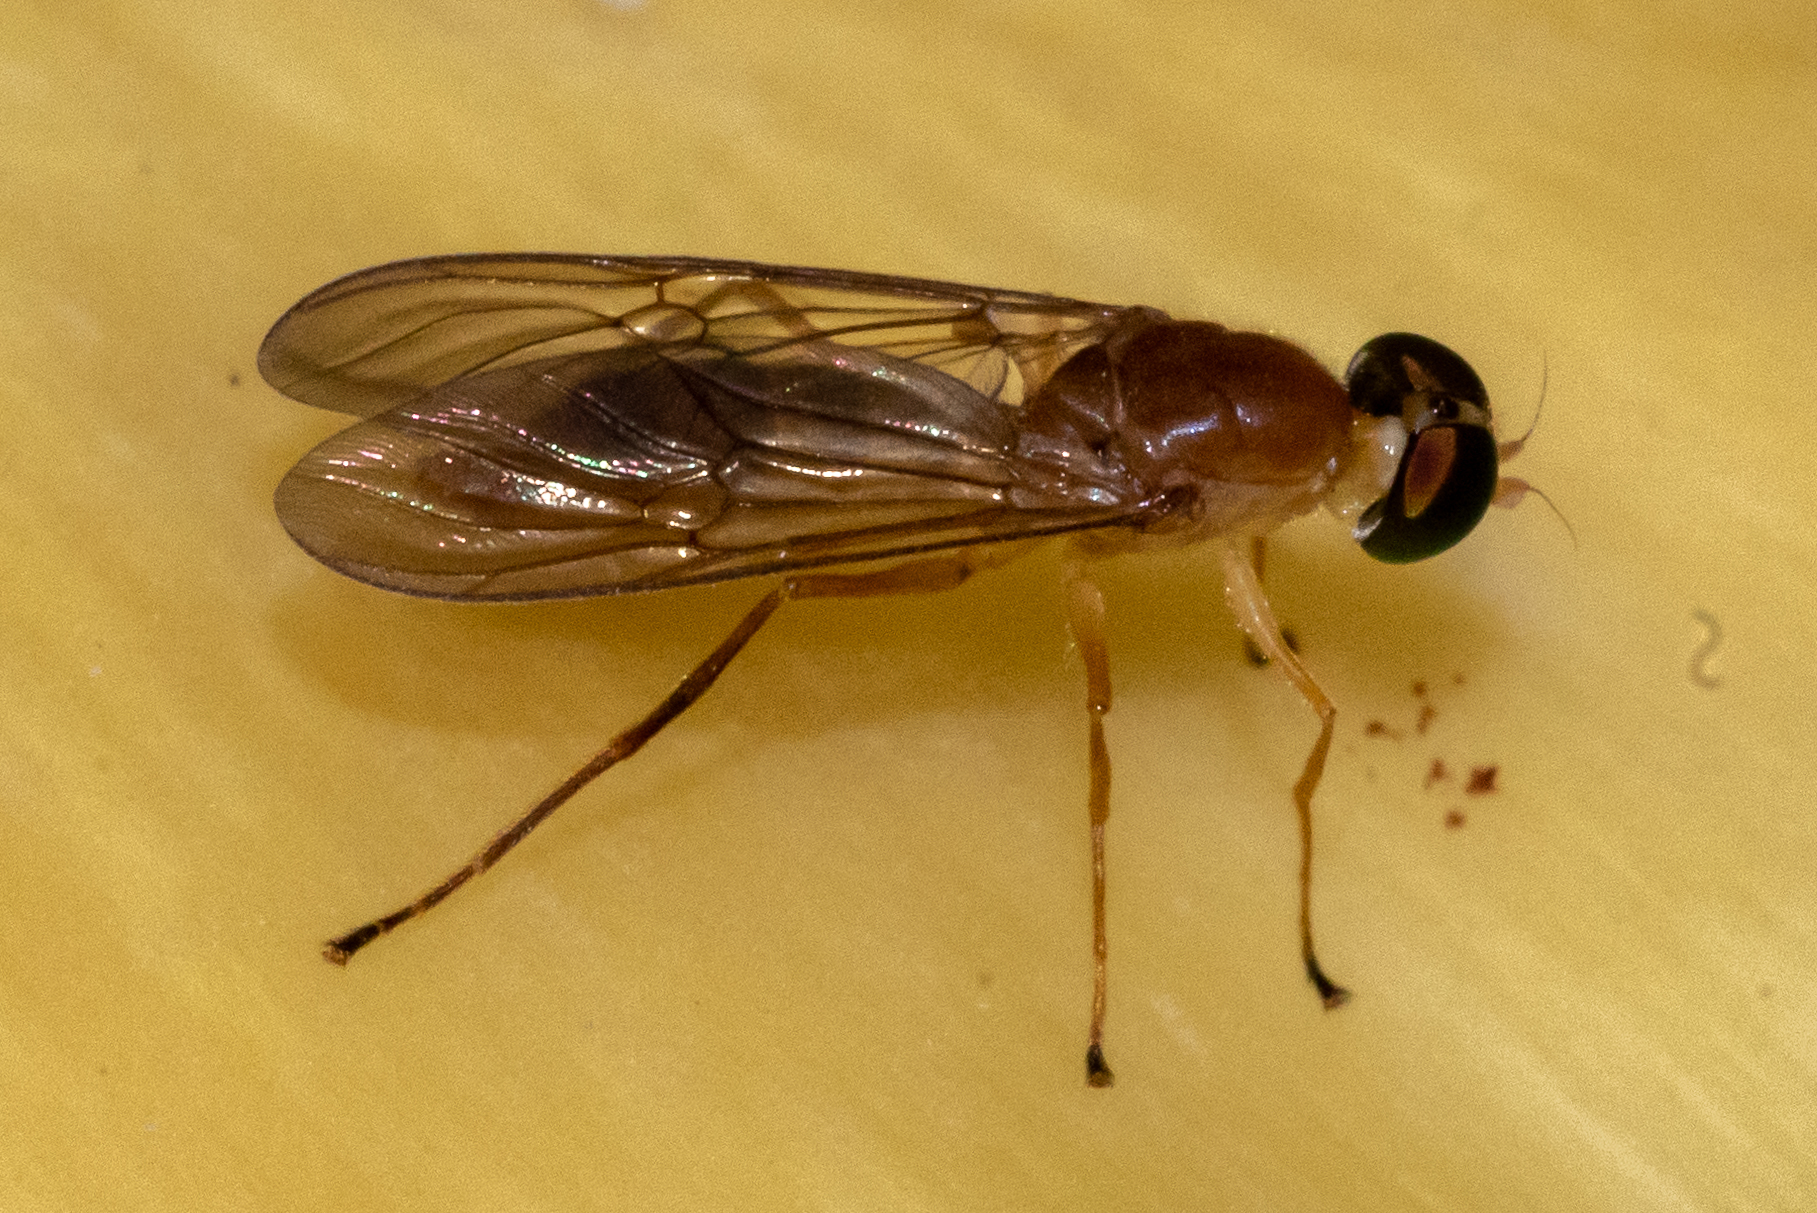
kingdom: Animalia
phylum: Arthropoda
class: Insecta
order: Diptera
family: Stratiomyidae
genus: Ptecticus
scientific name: Ptecticus trivittatus
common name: Compost fly
